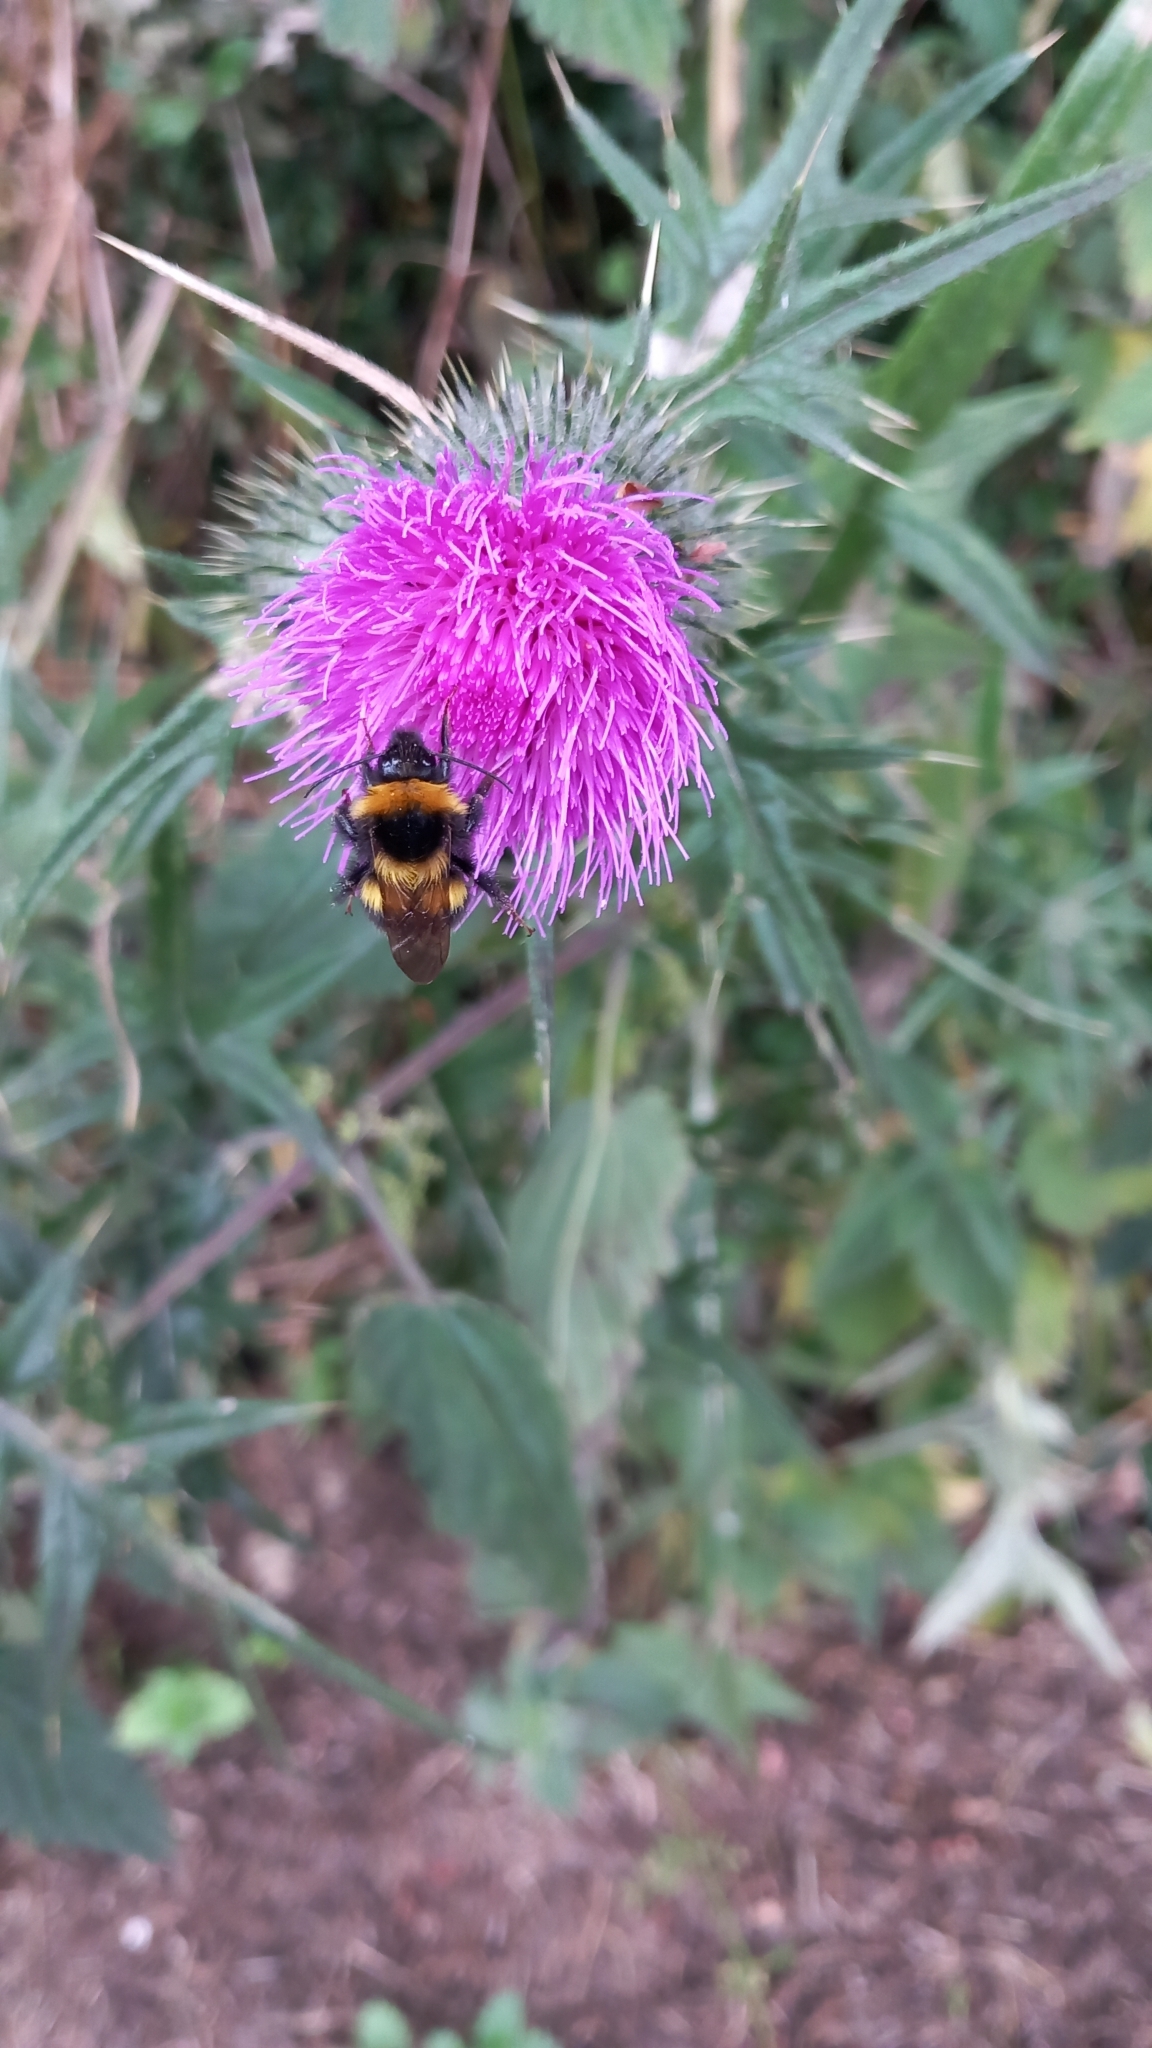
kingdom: Animalia
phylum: Arthropoda
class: Insecta
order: Hymenoptera
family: Apidae
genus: Bombus
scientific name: Bombus hortorum
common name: Garden bumblebee
